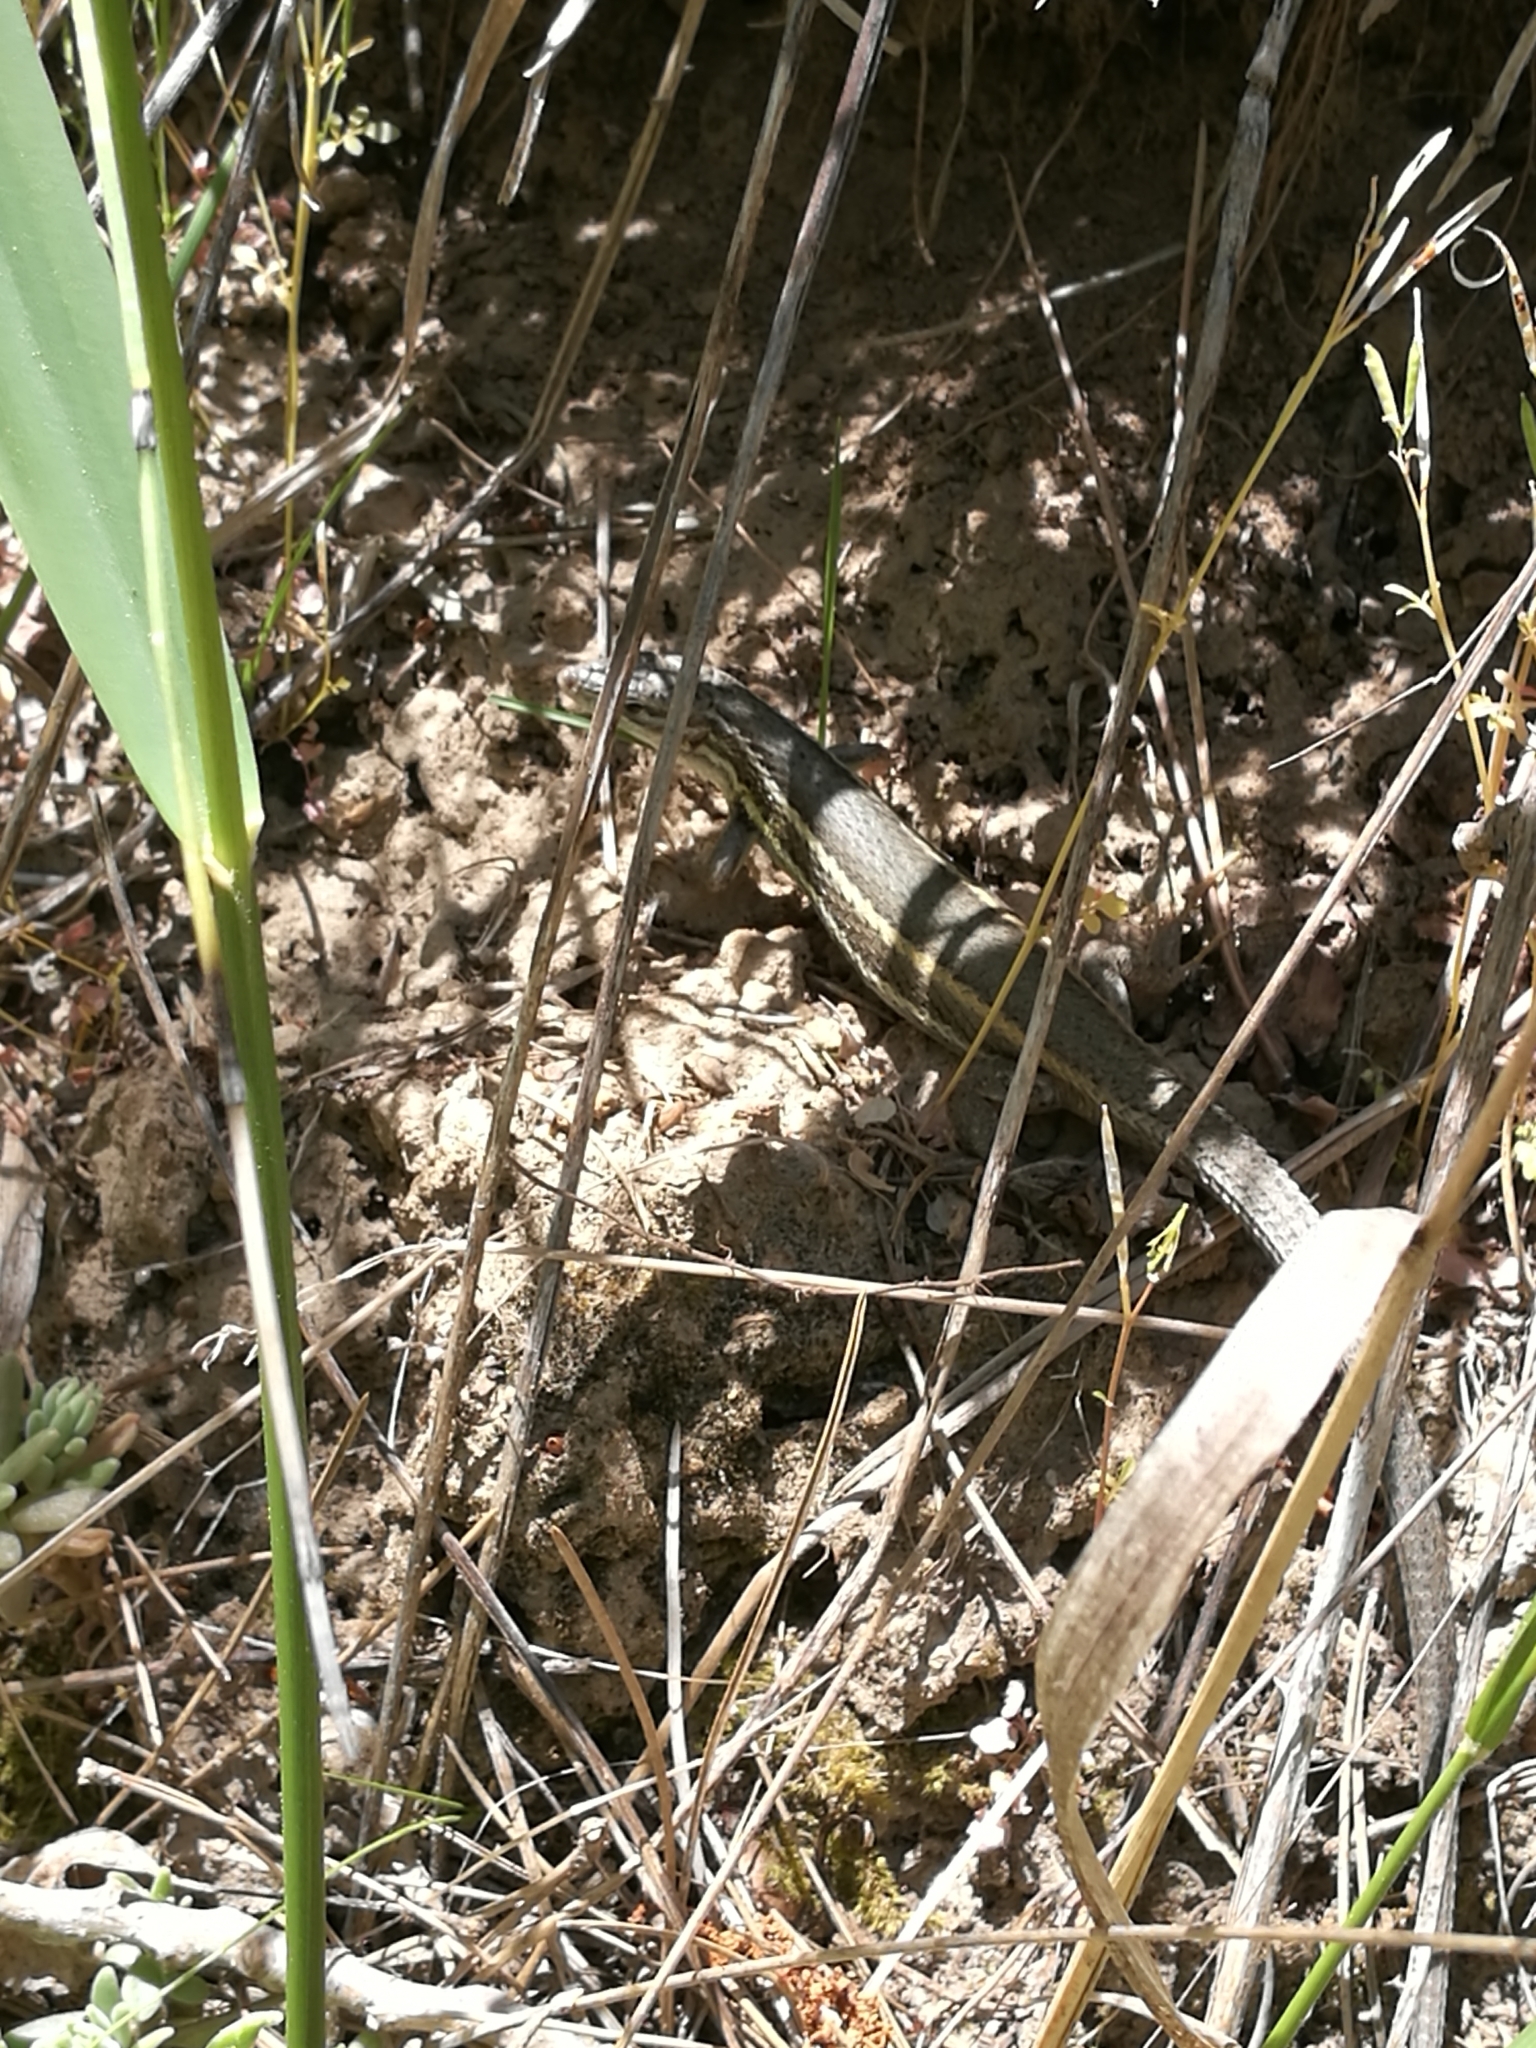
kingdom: Animalia
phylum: Chordata
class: Squamata
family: Lacertidae
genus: Psammodromus
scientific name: Psammodromus algirus
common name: Algerian psammodromus
